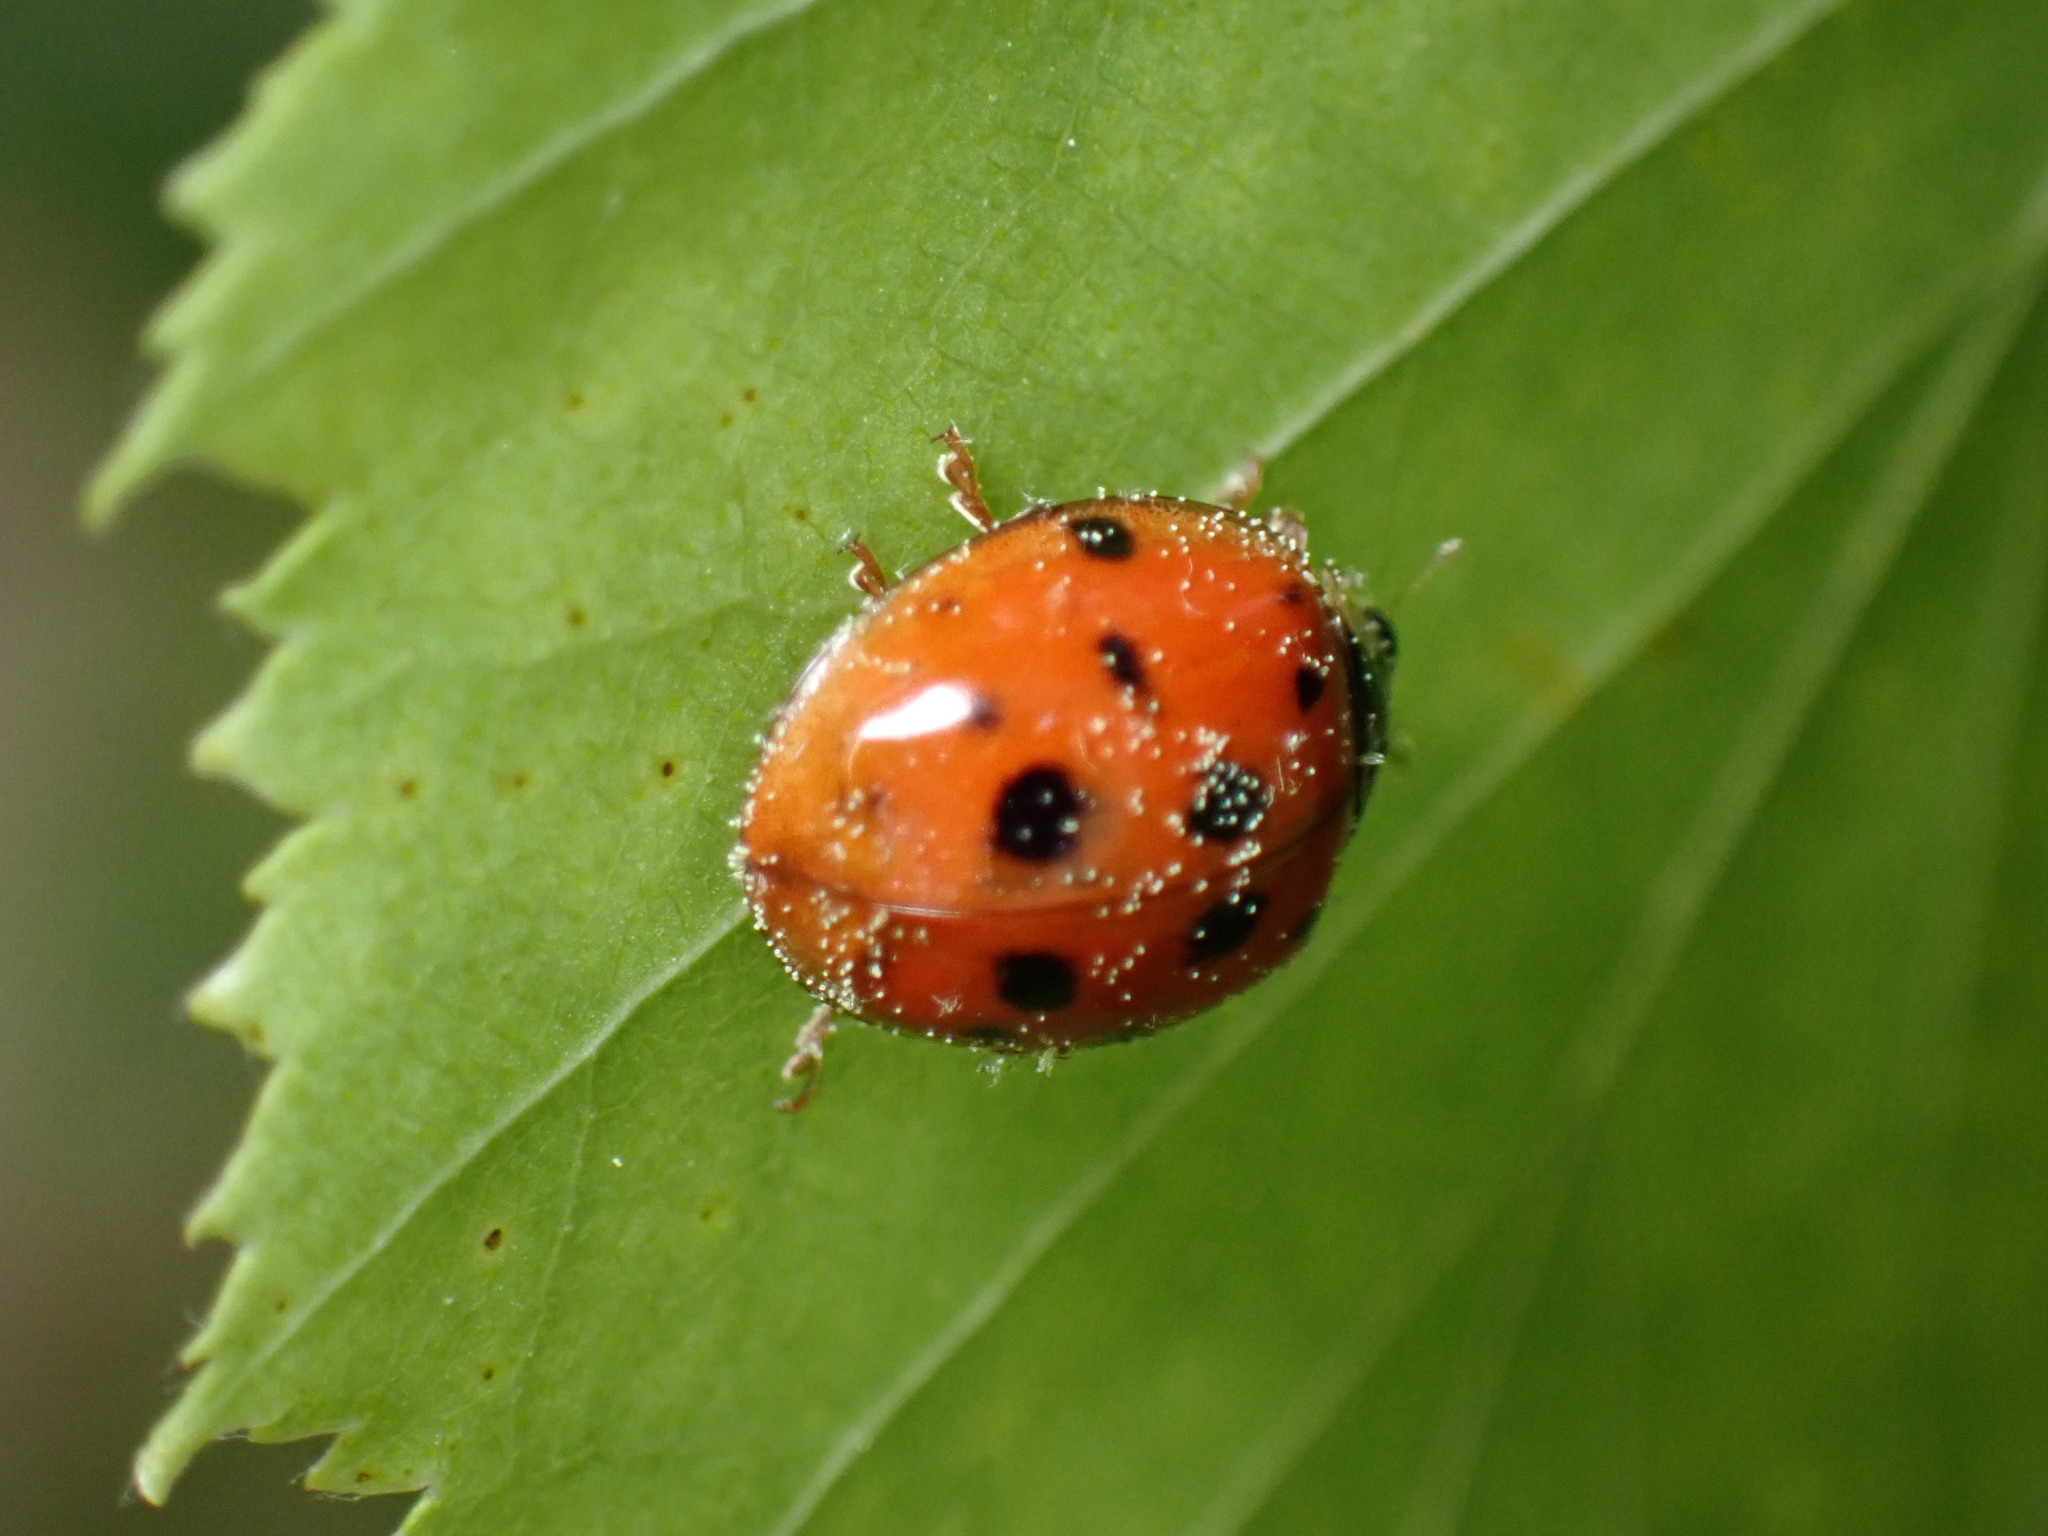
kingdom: Animalia
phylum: Arthropoda
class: Insecta
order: Coleoptera
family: Coccinellidae
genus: Harmonia
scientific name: Harmonia axyridis
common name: Harlequin ladybird
